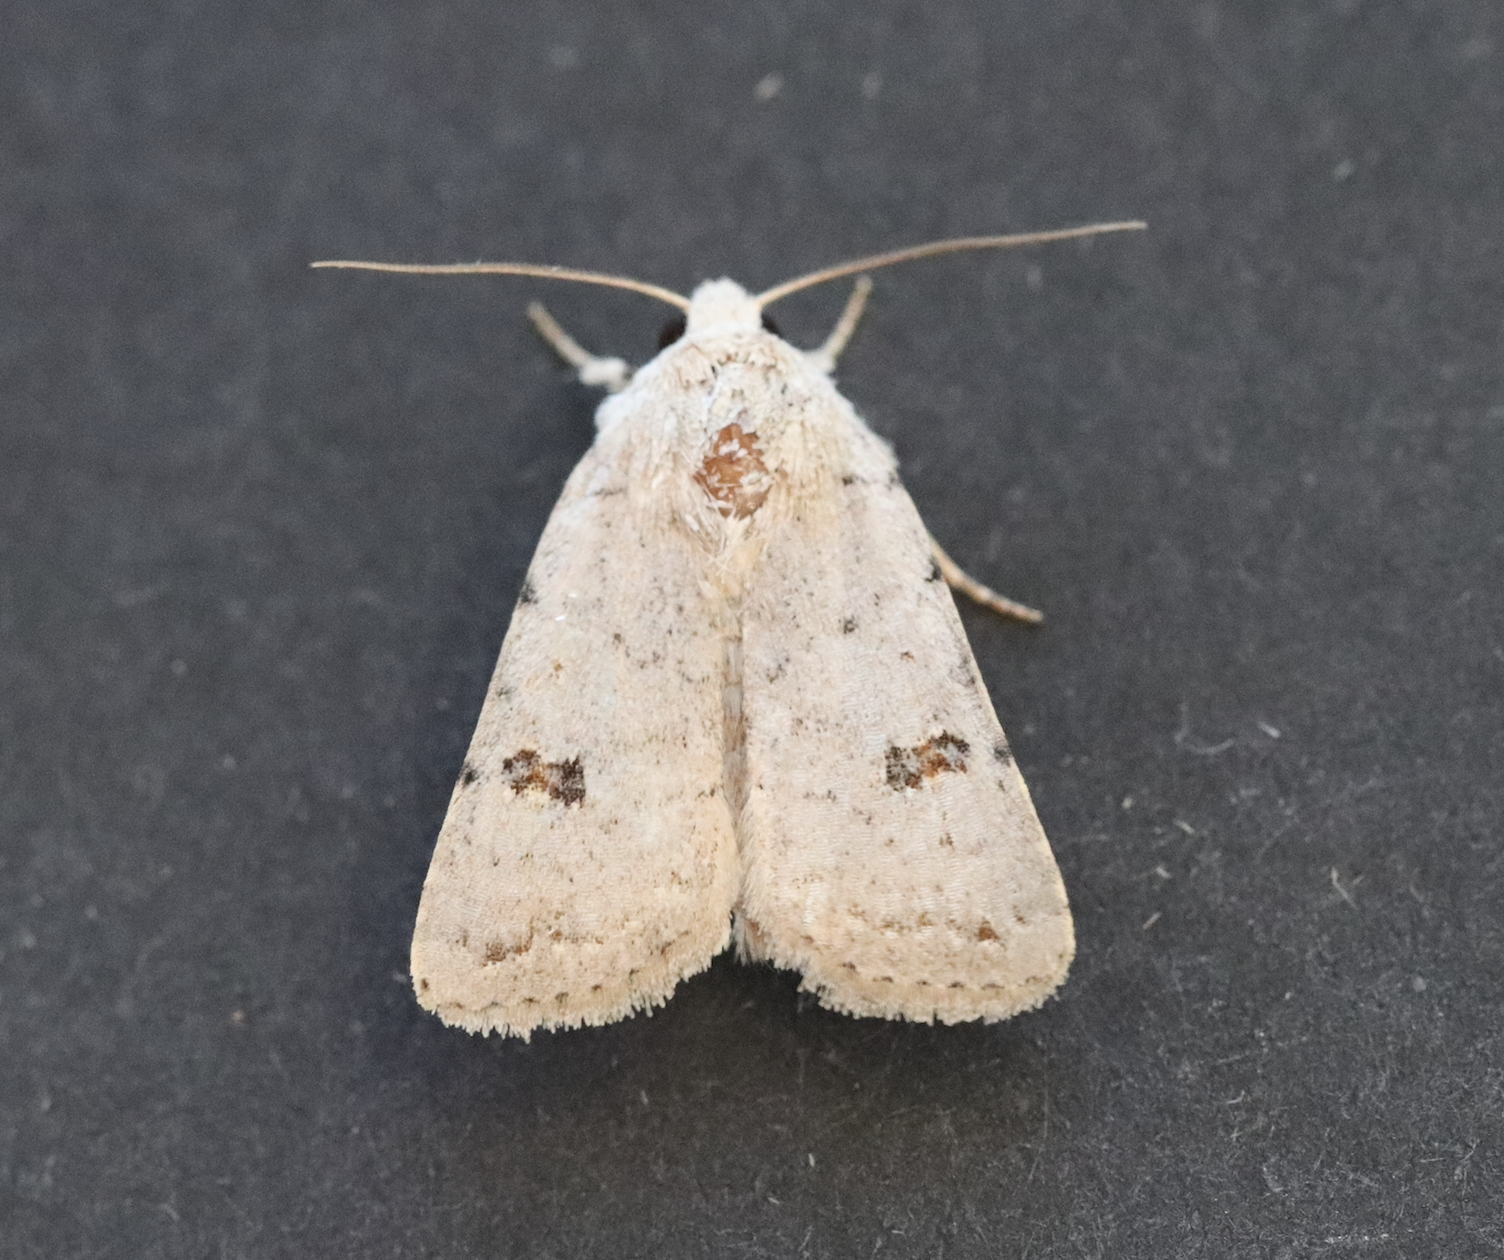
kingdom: Animalia
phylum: Arthropoda
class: Insecta
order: Lepidoptera
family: Noctuidae
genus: Caradrina
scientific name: Caradrina kadenii
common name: Clancy's rustic
